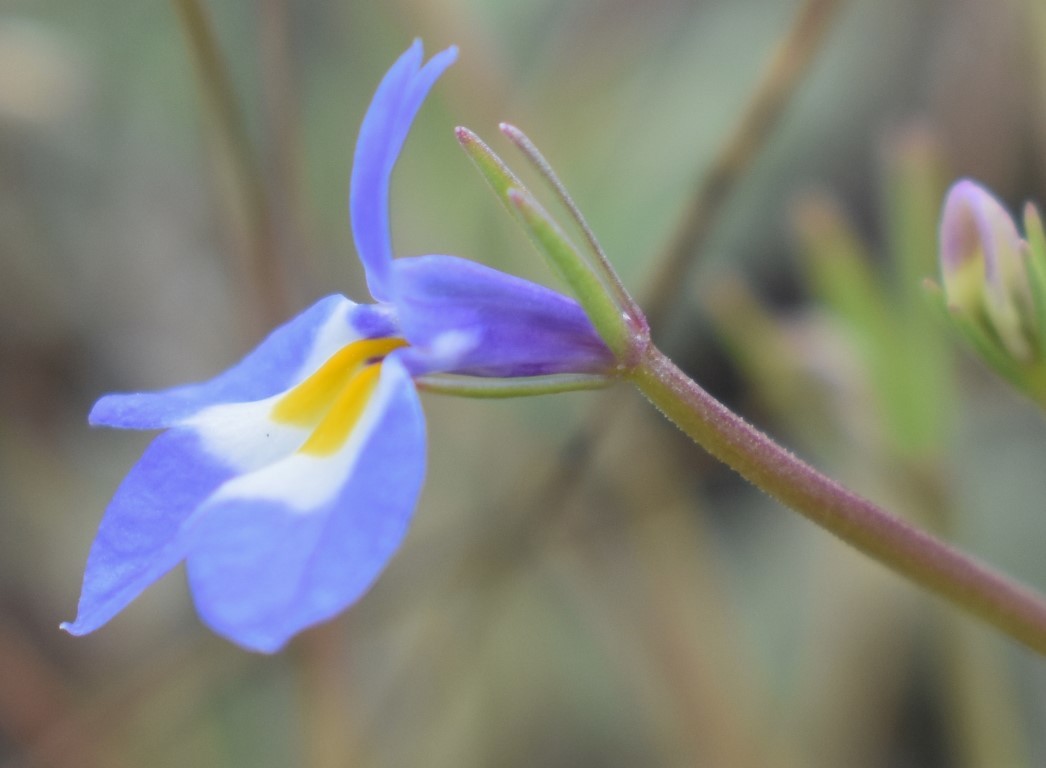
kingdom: Plantae
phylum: Tracheophyta
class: Magnoliopsida
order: Asterales
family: Campanulaceae
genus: Downingia
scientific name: Downingia yina
